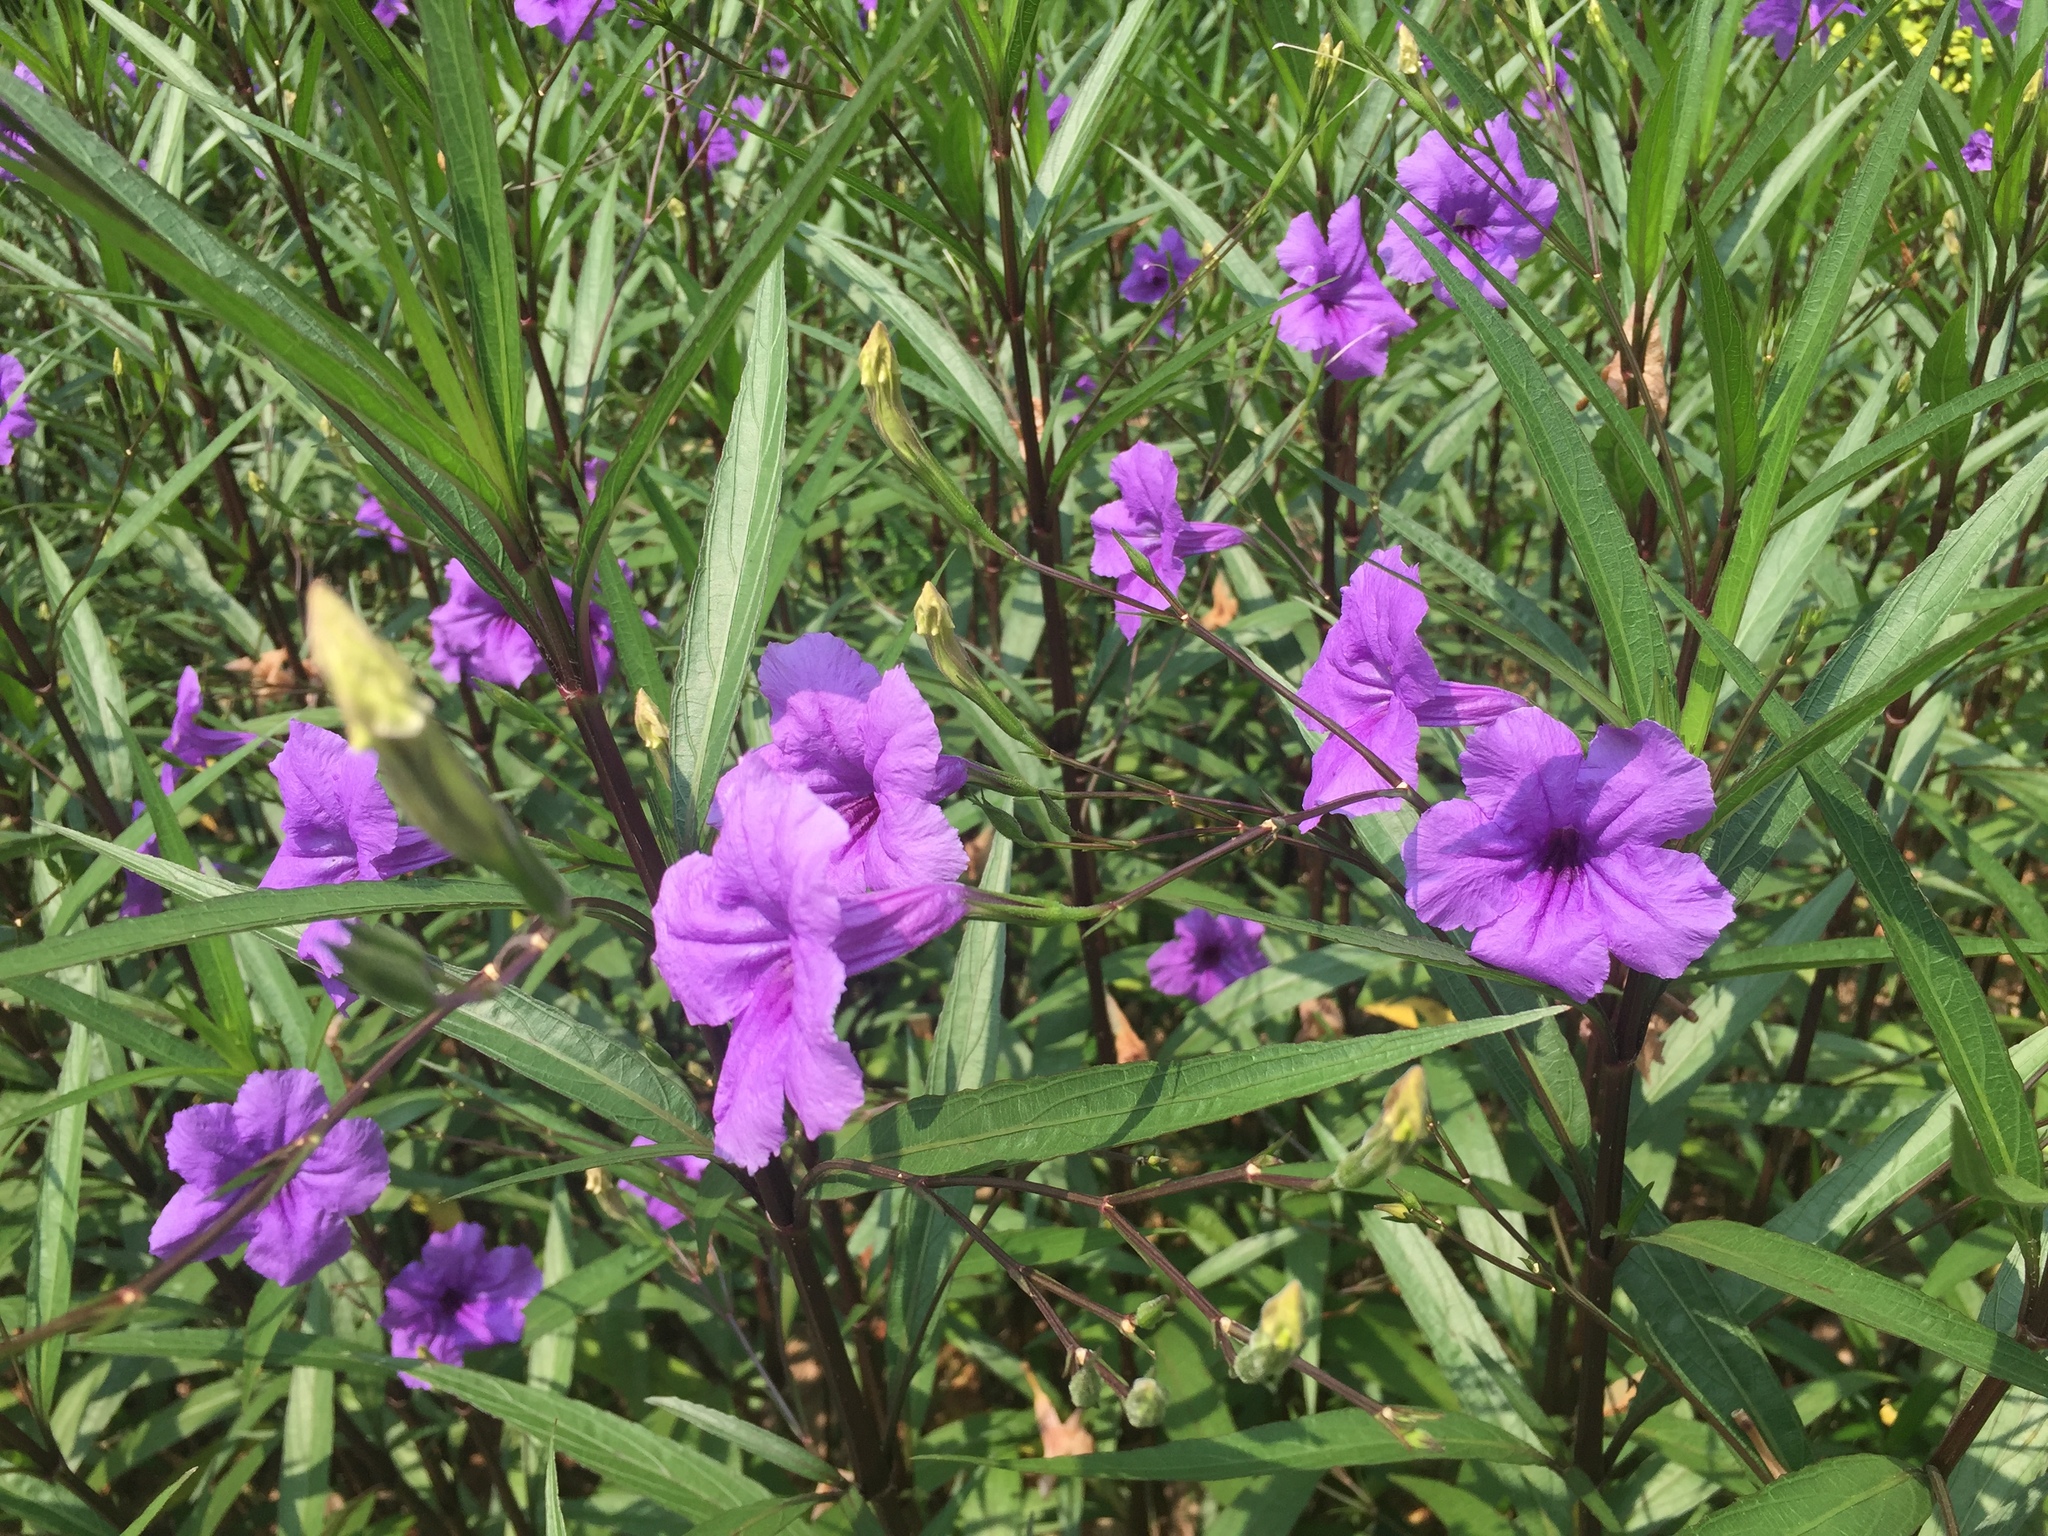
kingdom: Plantae
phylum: Tracheophyta
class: Magnoliopsida
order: Lamiales
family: Acanthaceae
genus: Ruellia
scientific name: Ruellia simplex
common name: Softseed wild petunia
